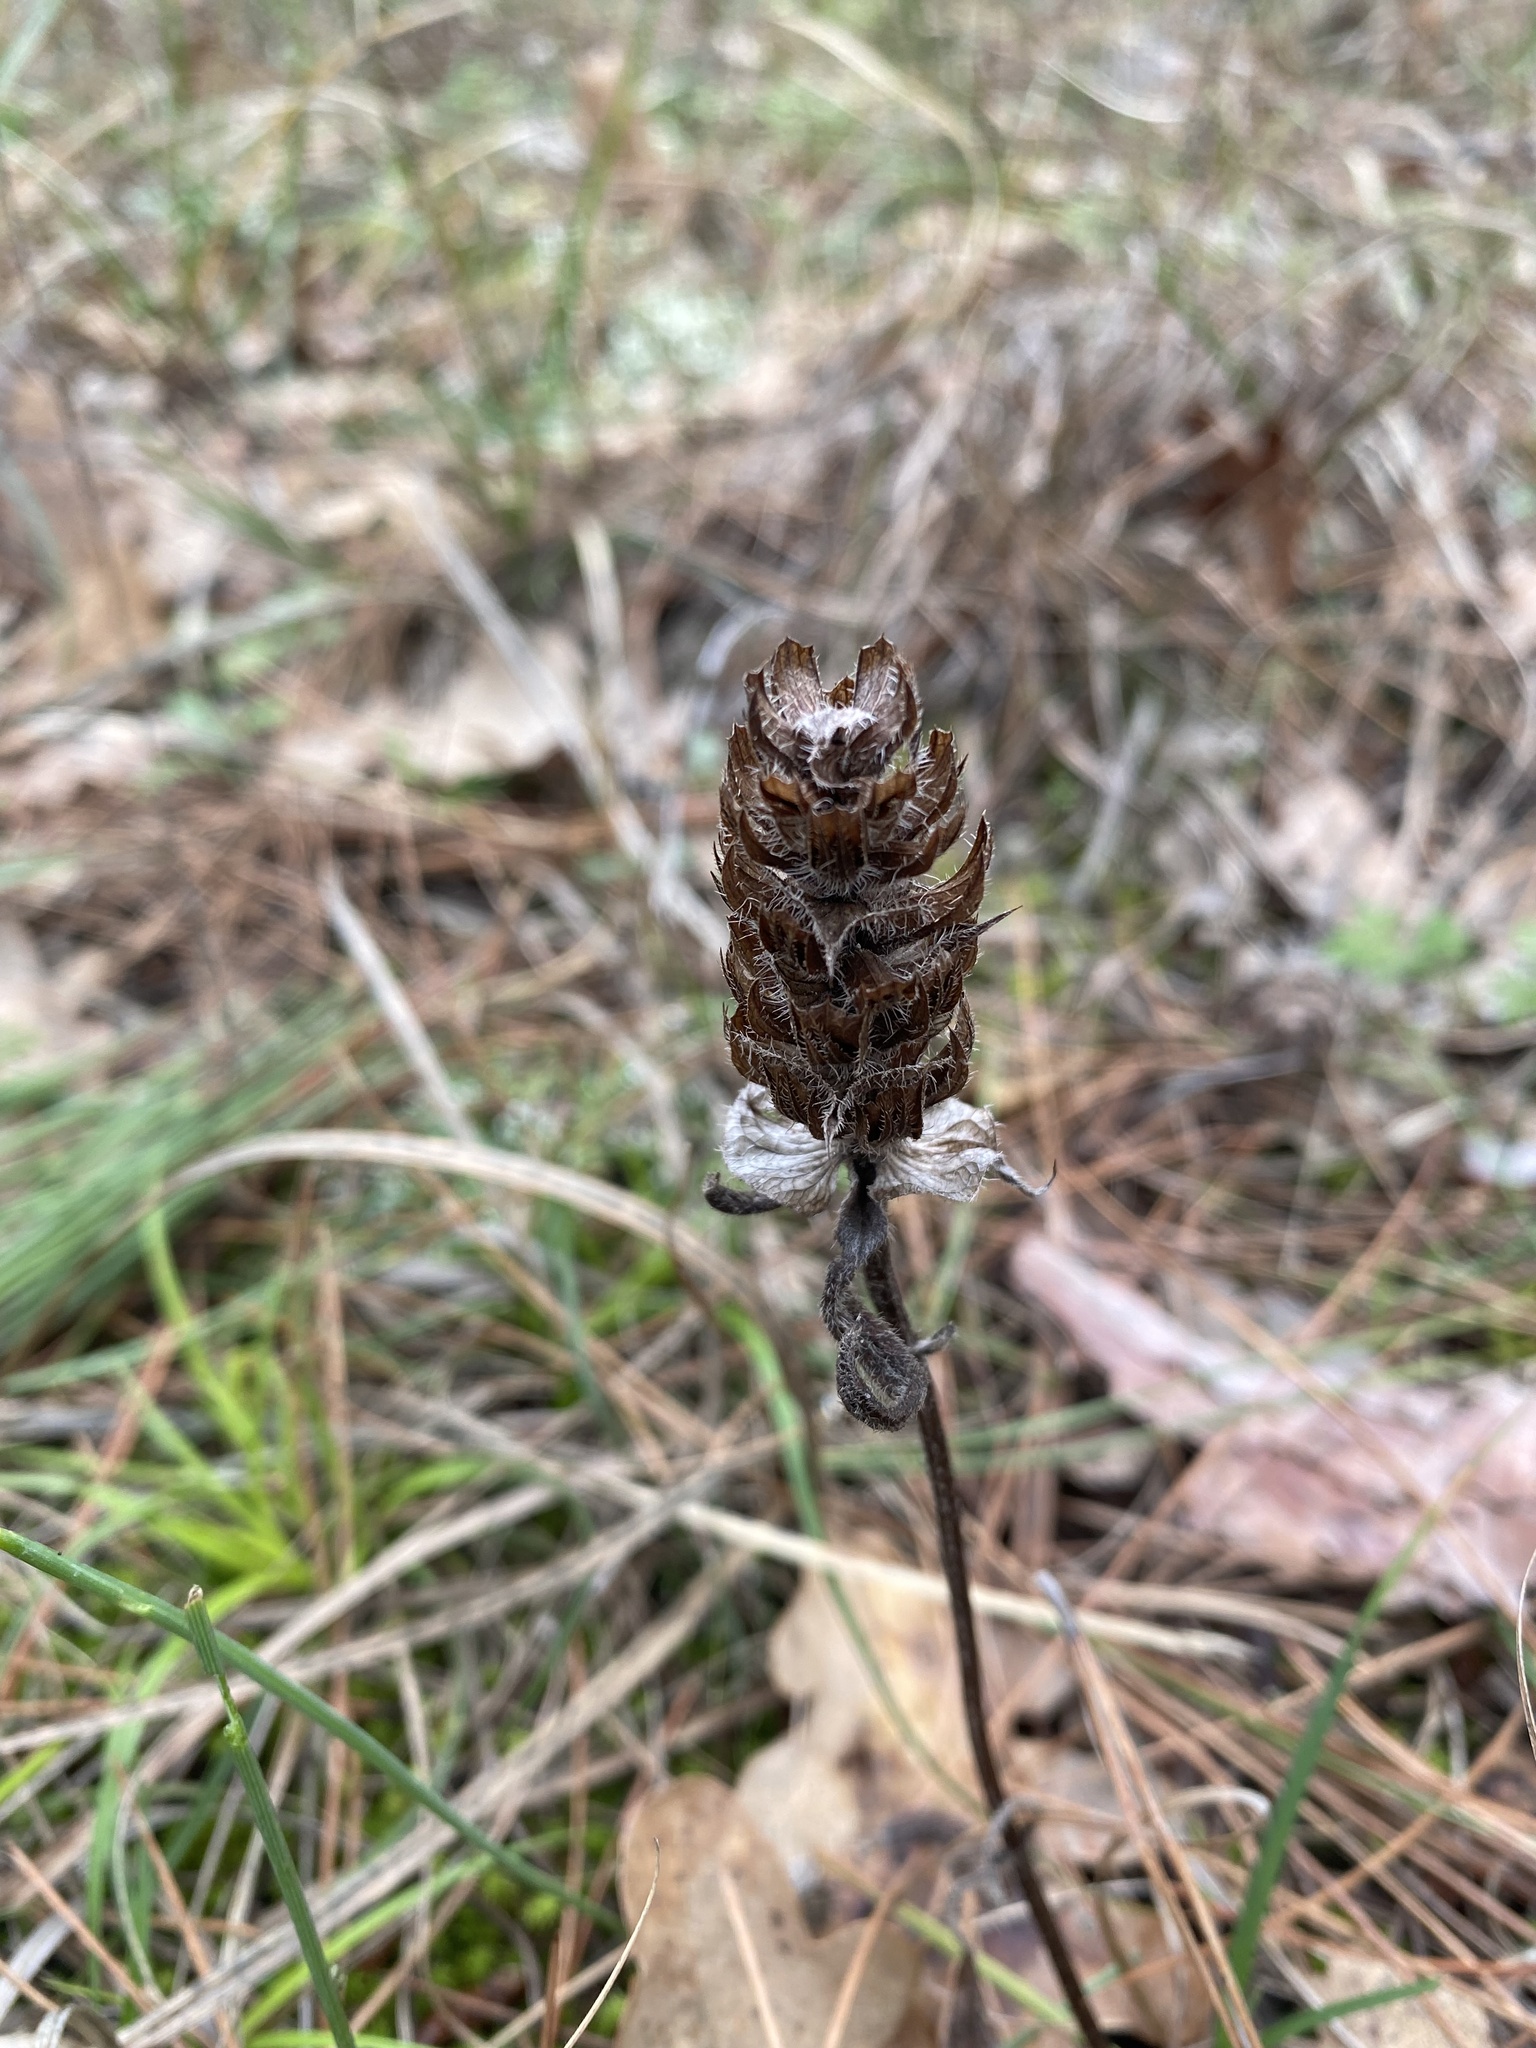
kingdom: Plantae
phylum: Tracheophyta
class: Magnoliopsida
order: Lamiales
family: Lamiaceae
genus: Prunella
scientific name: Prunella vulgaris
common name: Heal-all
